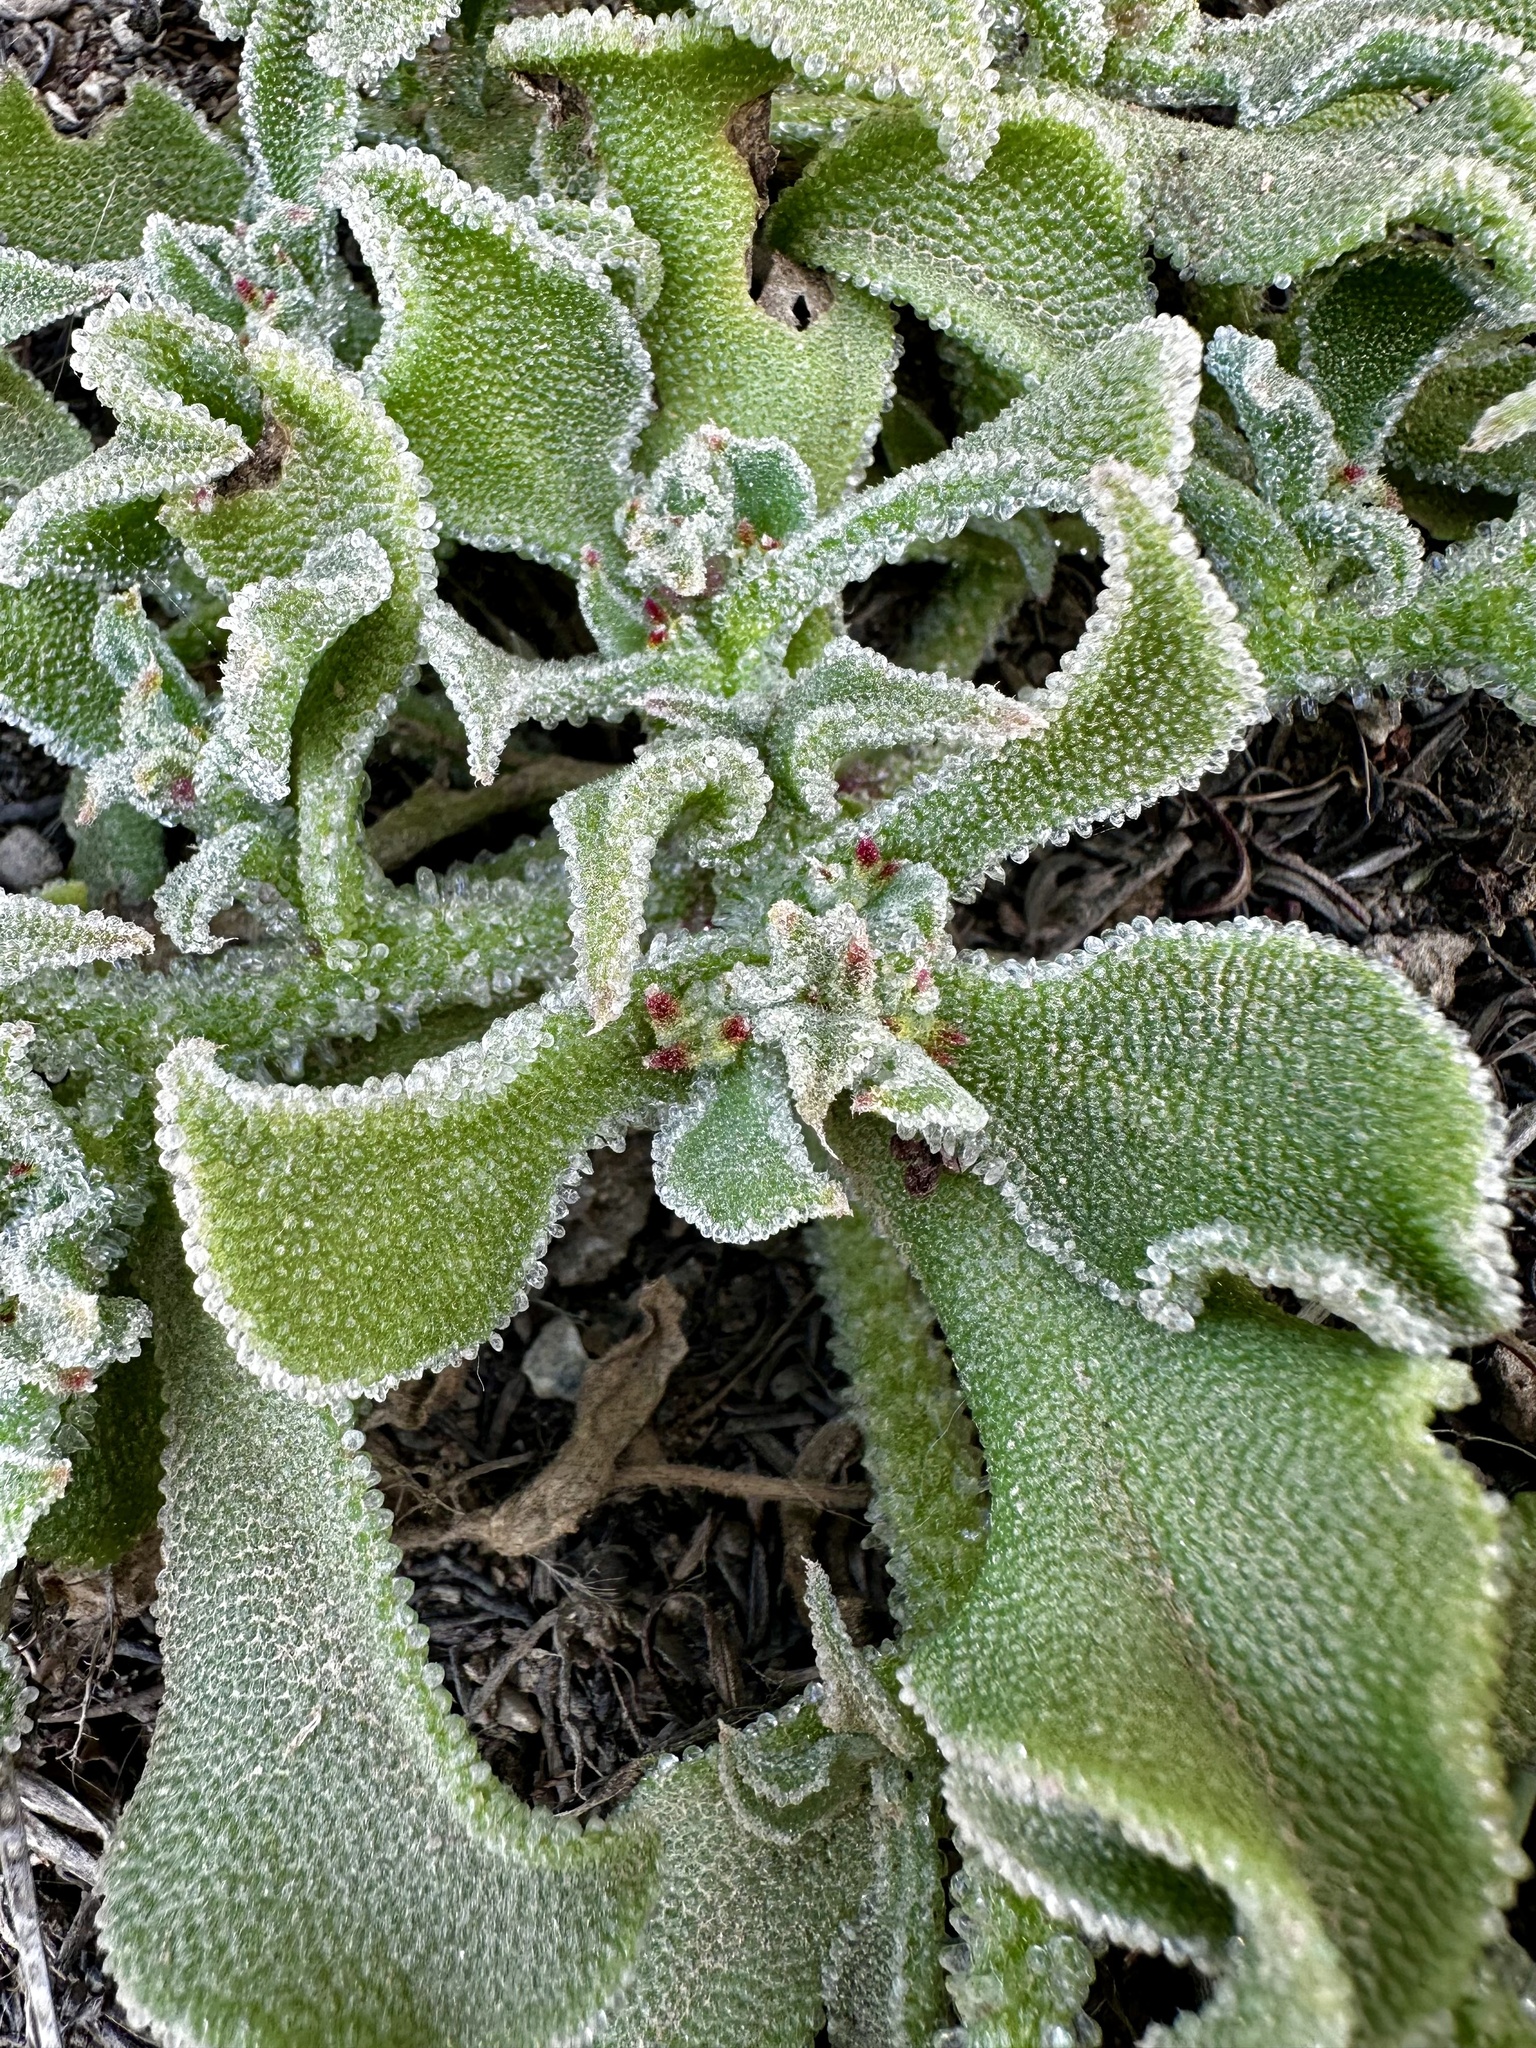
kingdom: Plantae
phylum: Tracheophyta
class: Magnoliopsida
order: Caryophyllales
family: Aizoaceae
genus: Mesembryanthemum
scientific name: Mesembryanthemum crystallinum
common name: Common iceplant
